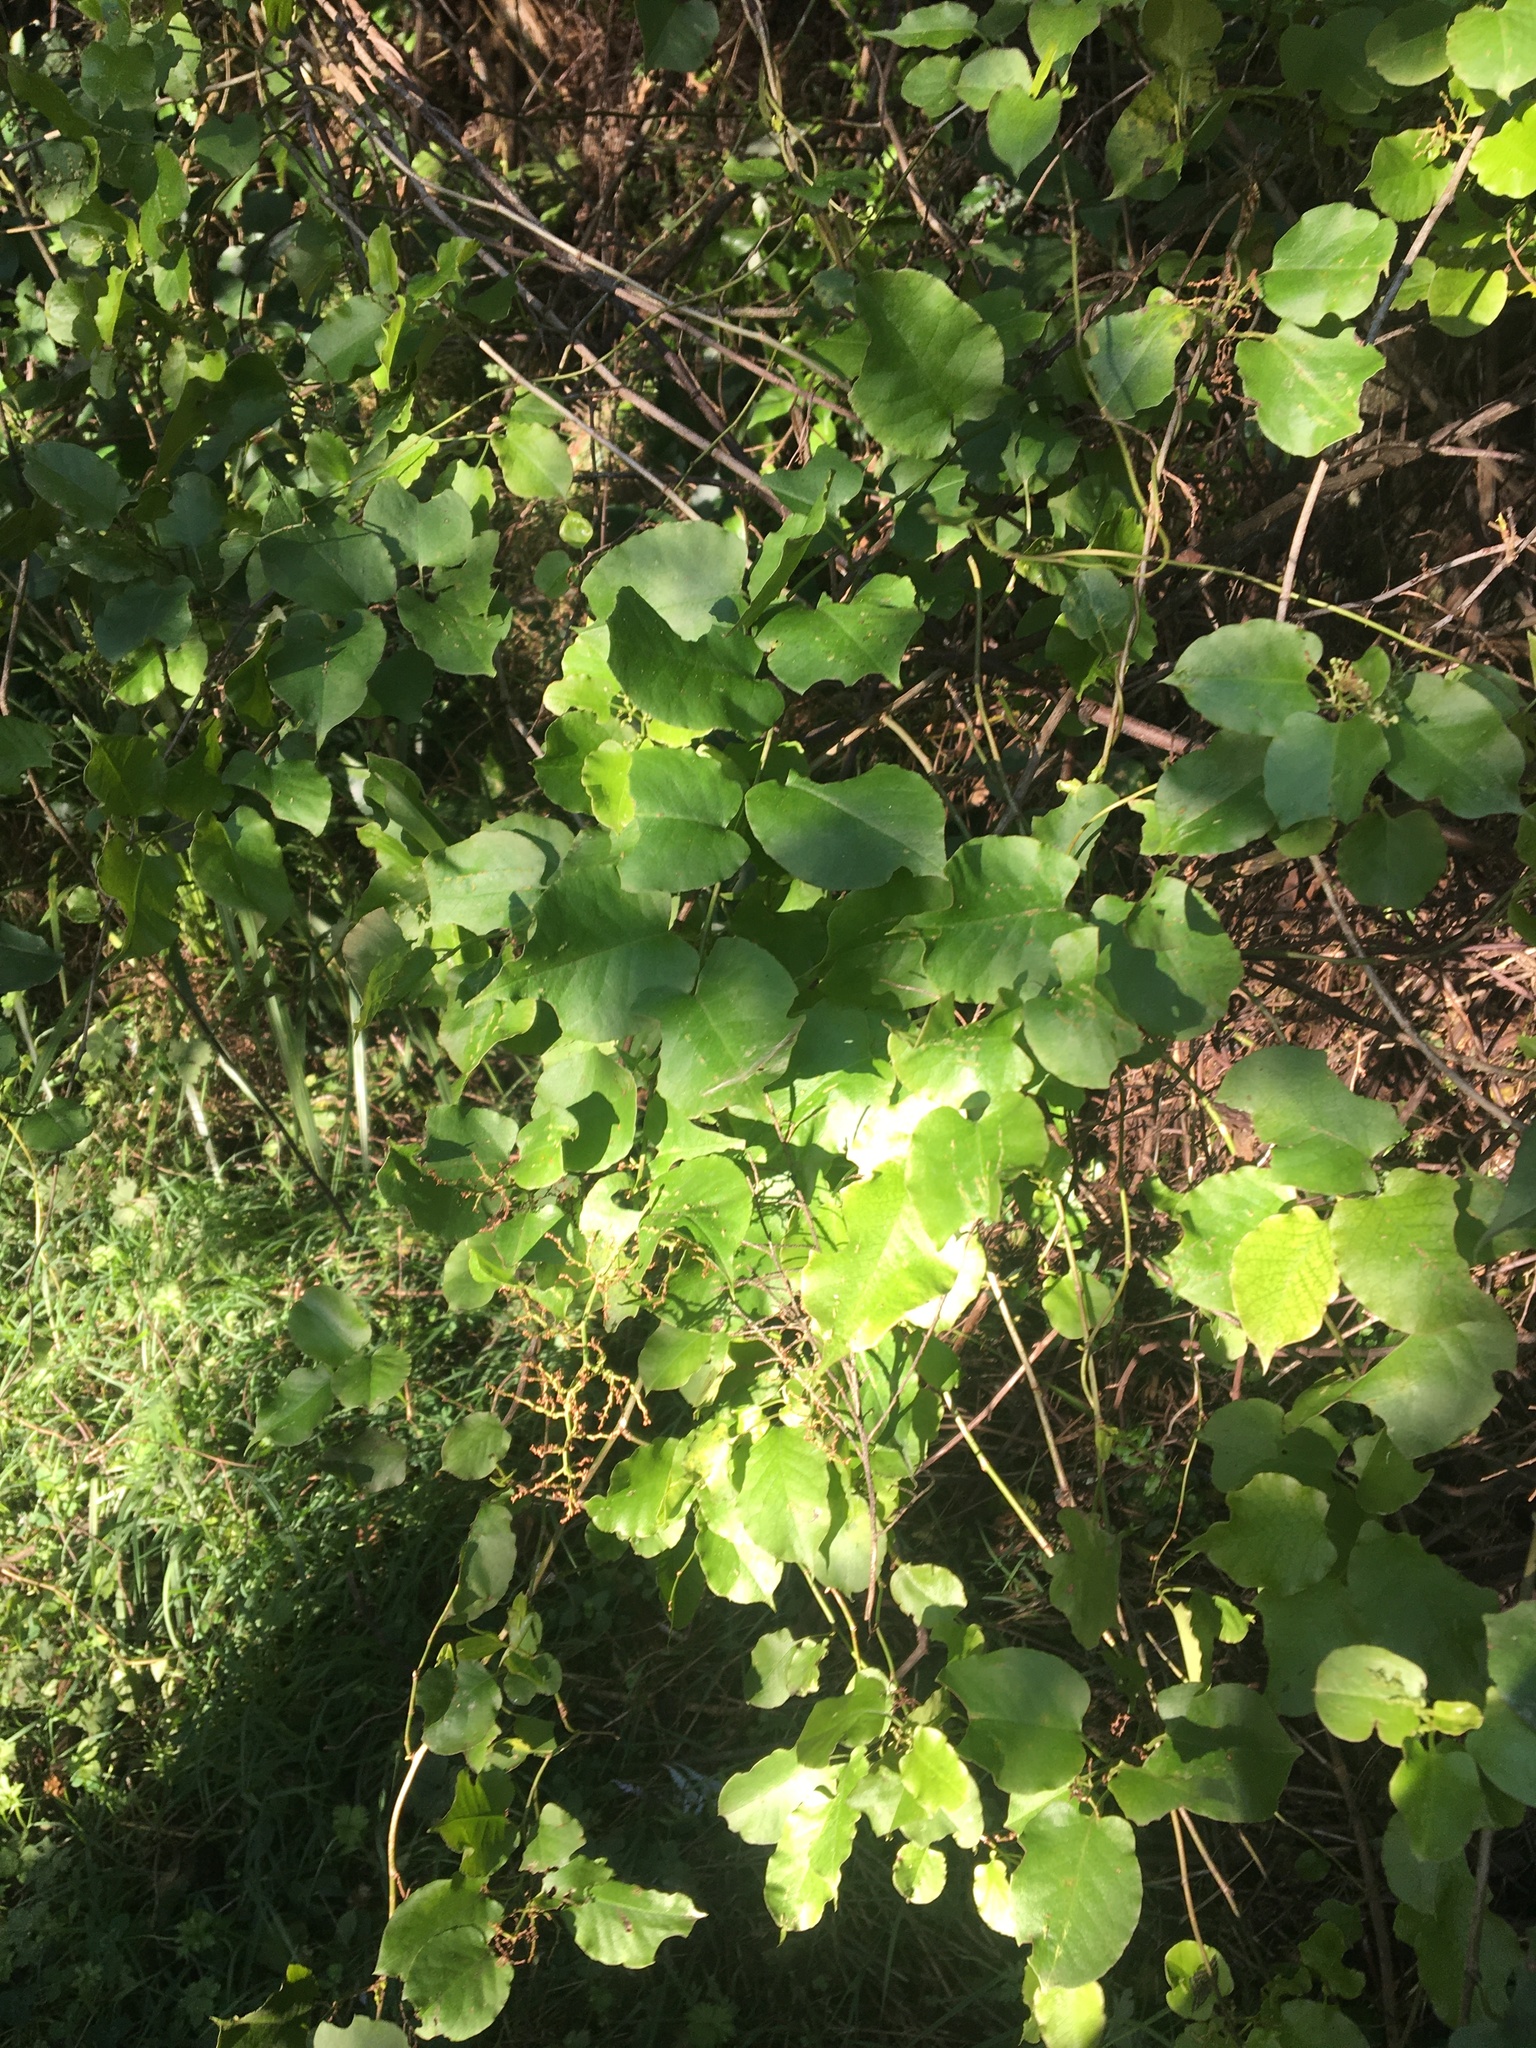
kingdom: Plantae
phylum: Tracheophyta
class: Magnoliopsida
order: Caryophyllales
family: Polygonaceae
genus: Muehlenbeckia
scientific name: Muehlenbeckia australis
